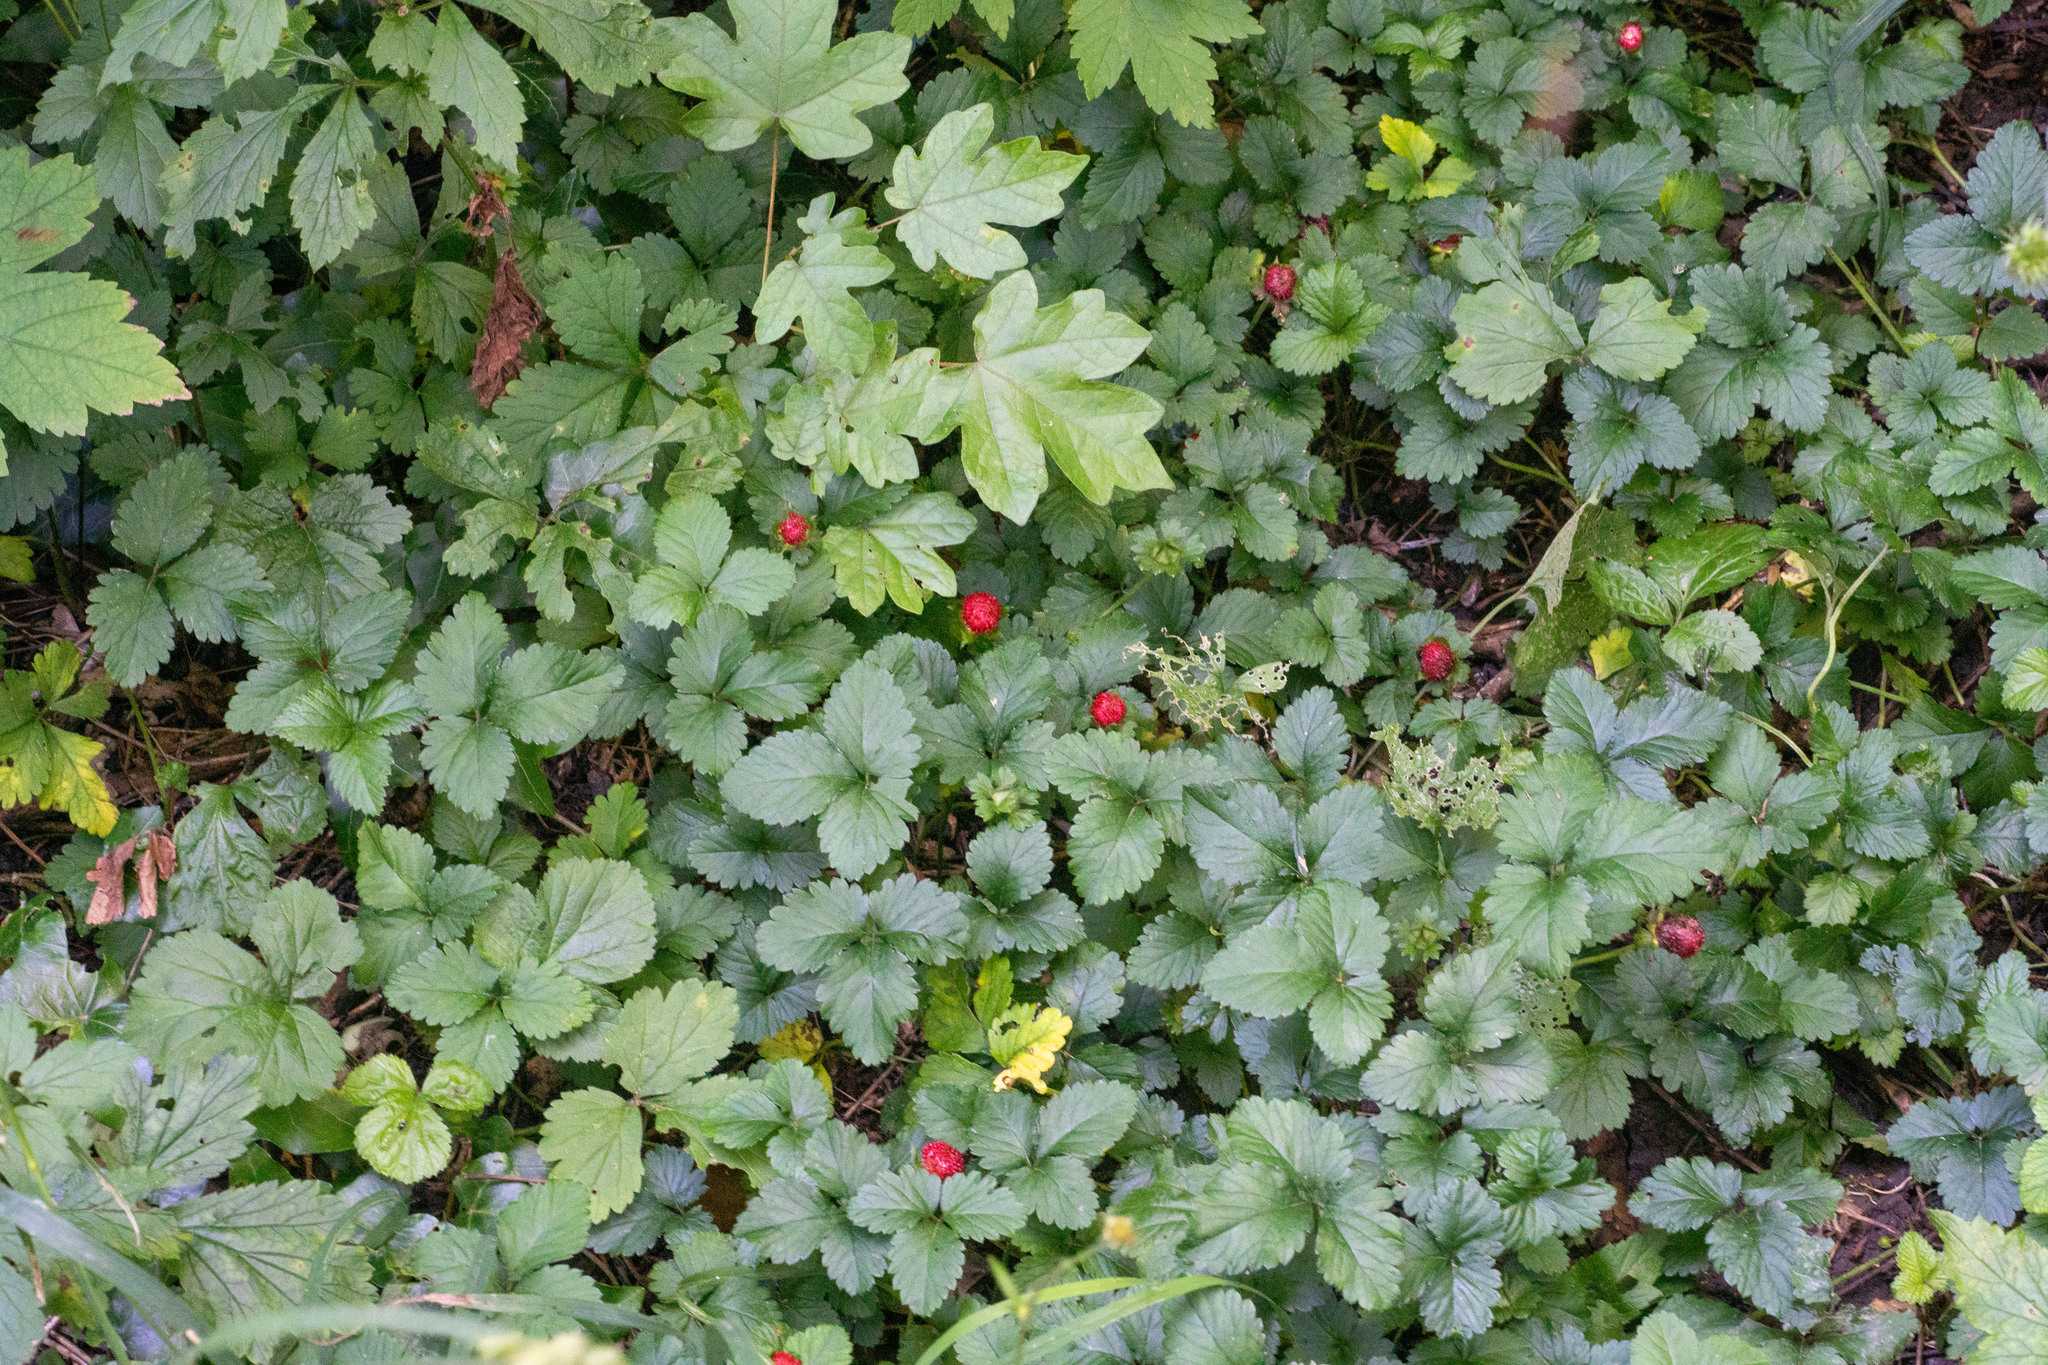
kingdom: Plantae
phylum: Tracheophyta
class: Magnoliopsida
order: Rosales
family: Rosaceae
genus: Potentilla
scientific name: Potentilla indica
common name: Yellow-flowered strawberry
